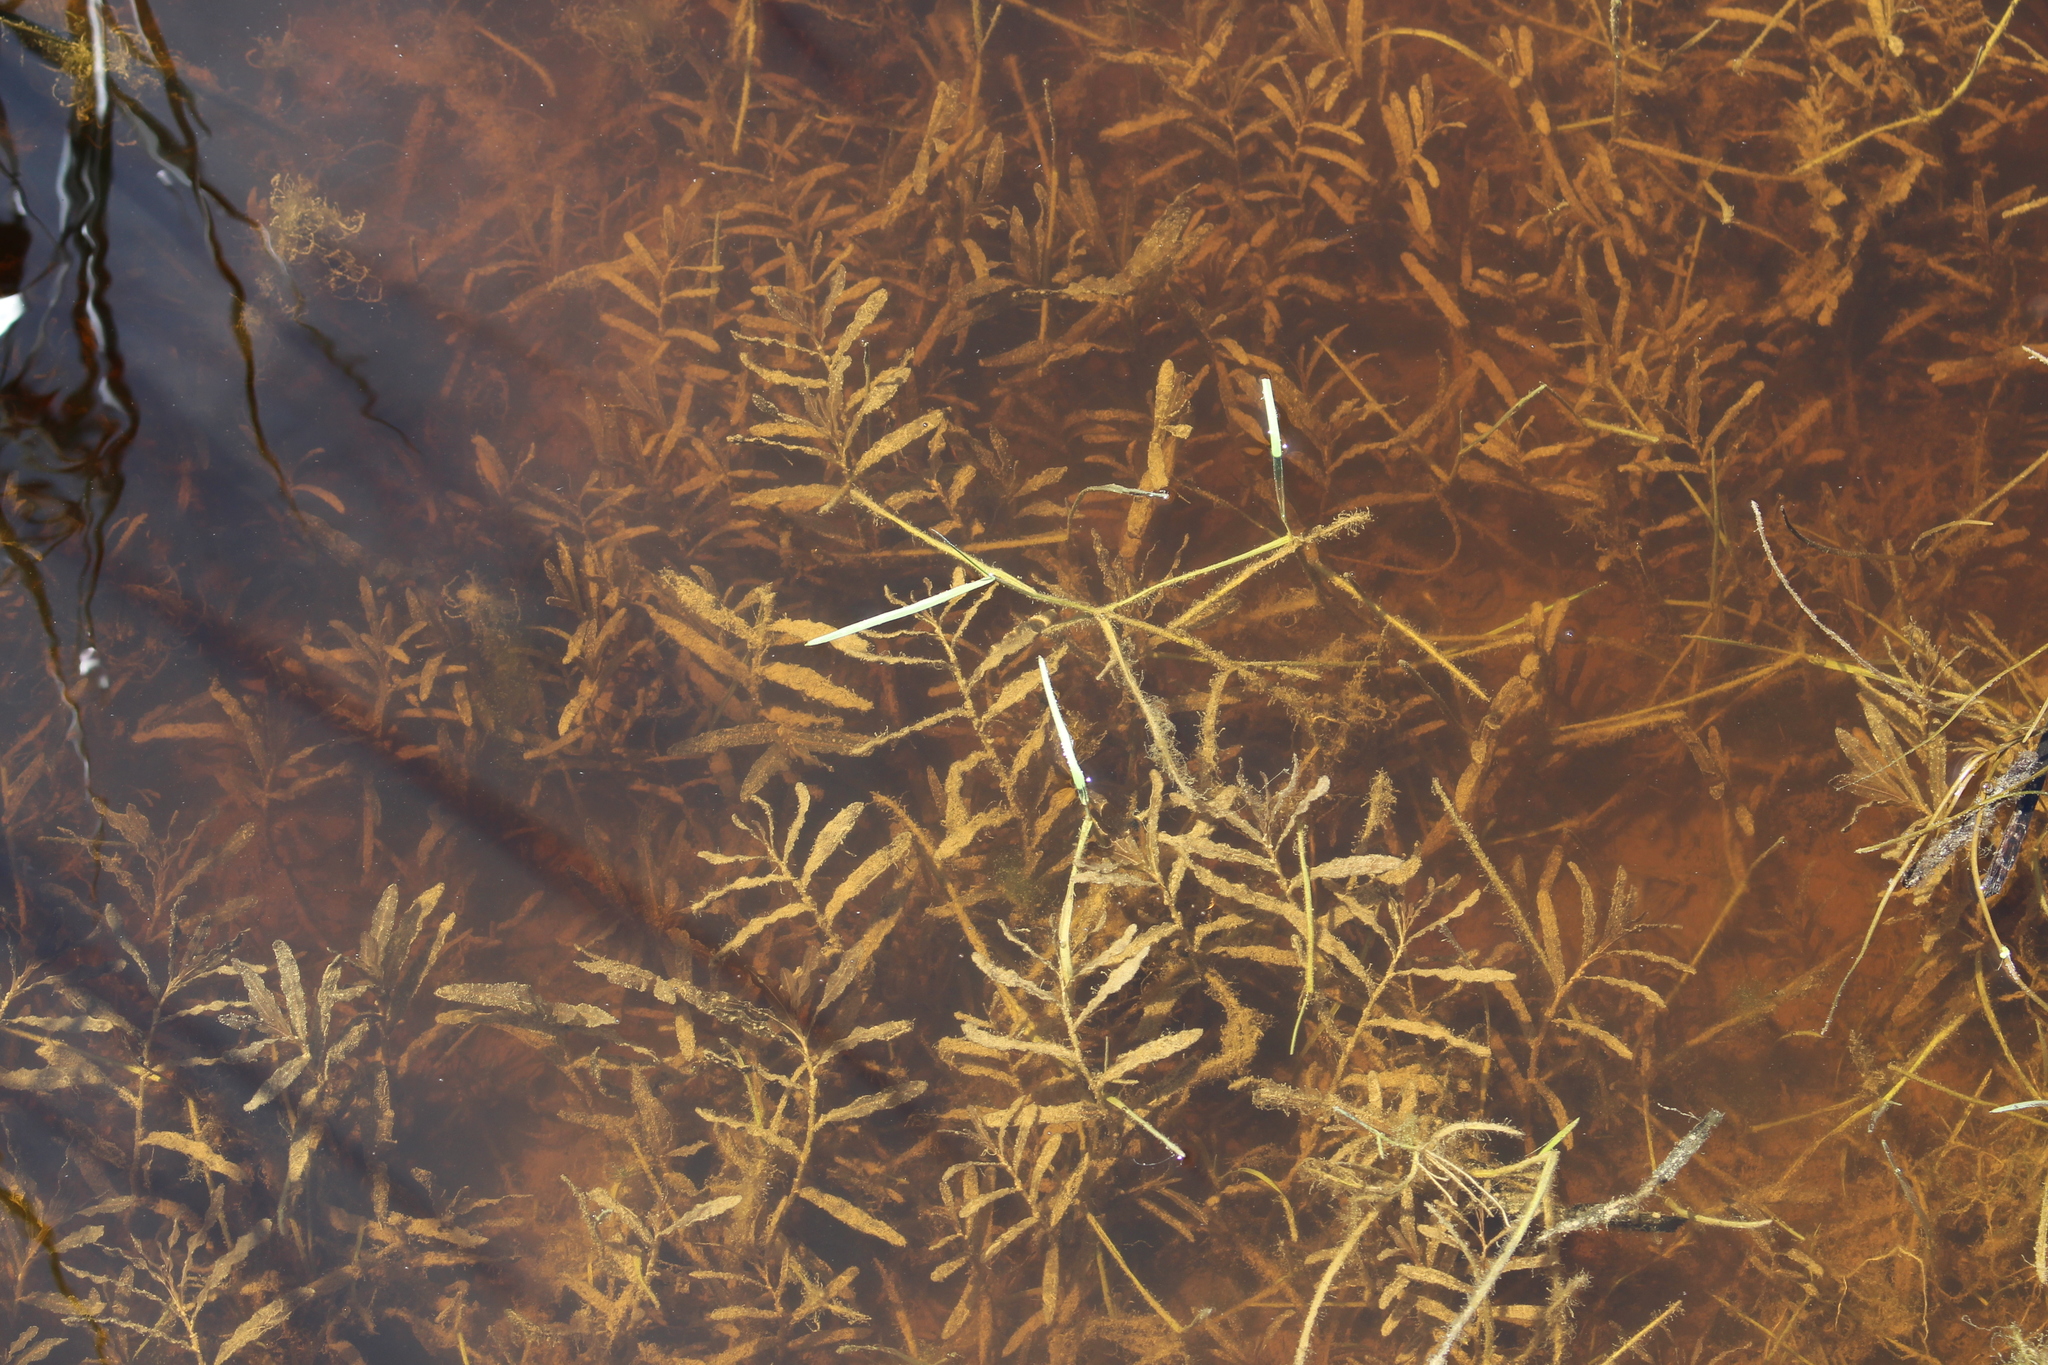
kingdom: Plantae
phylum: Tracheophyta
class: Liliopsida
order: Alismatales
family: Potamogetonaceae
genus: Potamogeton
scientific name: Potamogeton crispus
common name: Curled pondweed
